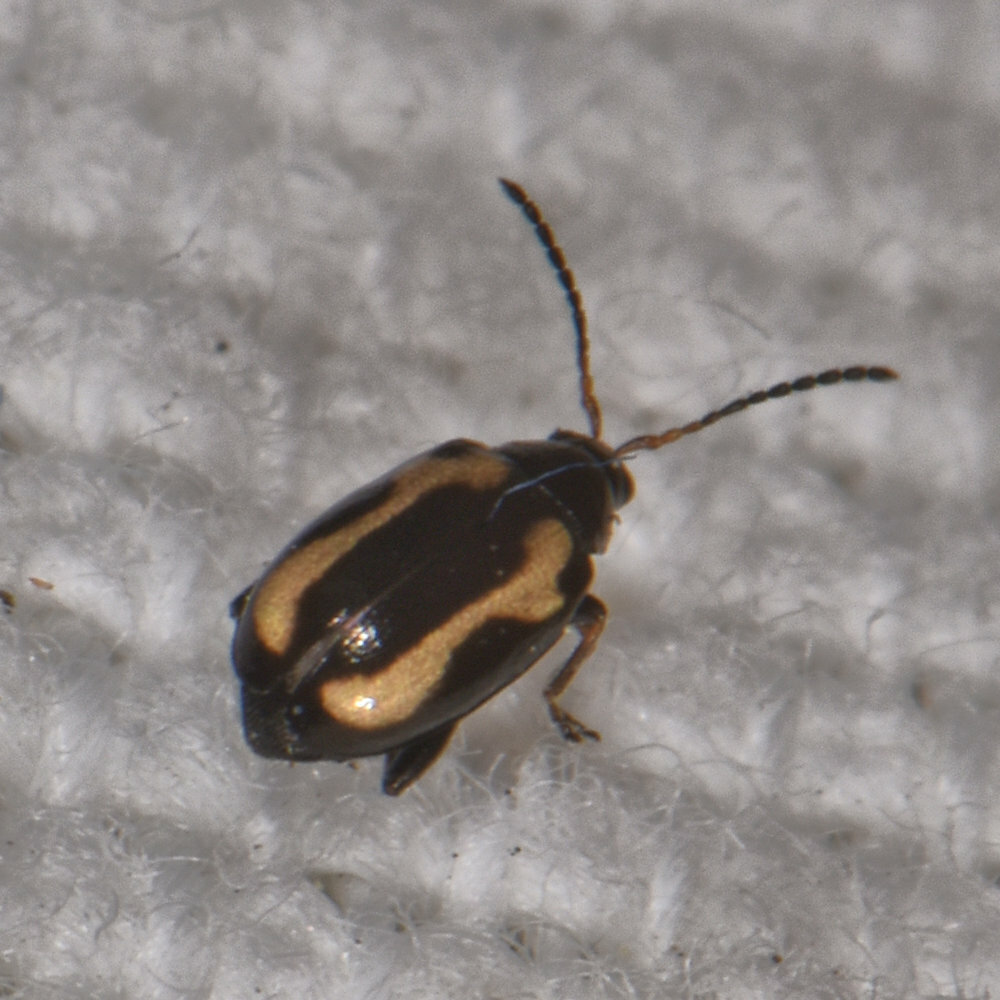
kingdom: Animalia
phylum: Arthropoda
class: Insecta
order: Coleoptera
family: Chrysomelidae
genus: Phyllotreta
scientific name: Phyllotreta striolata
